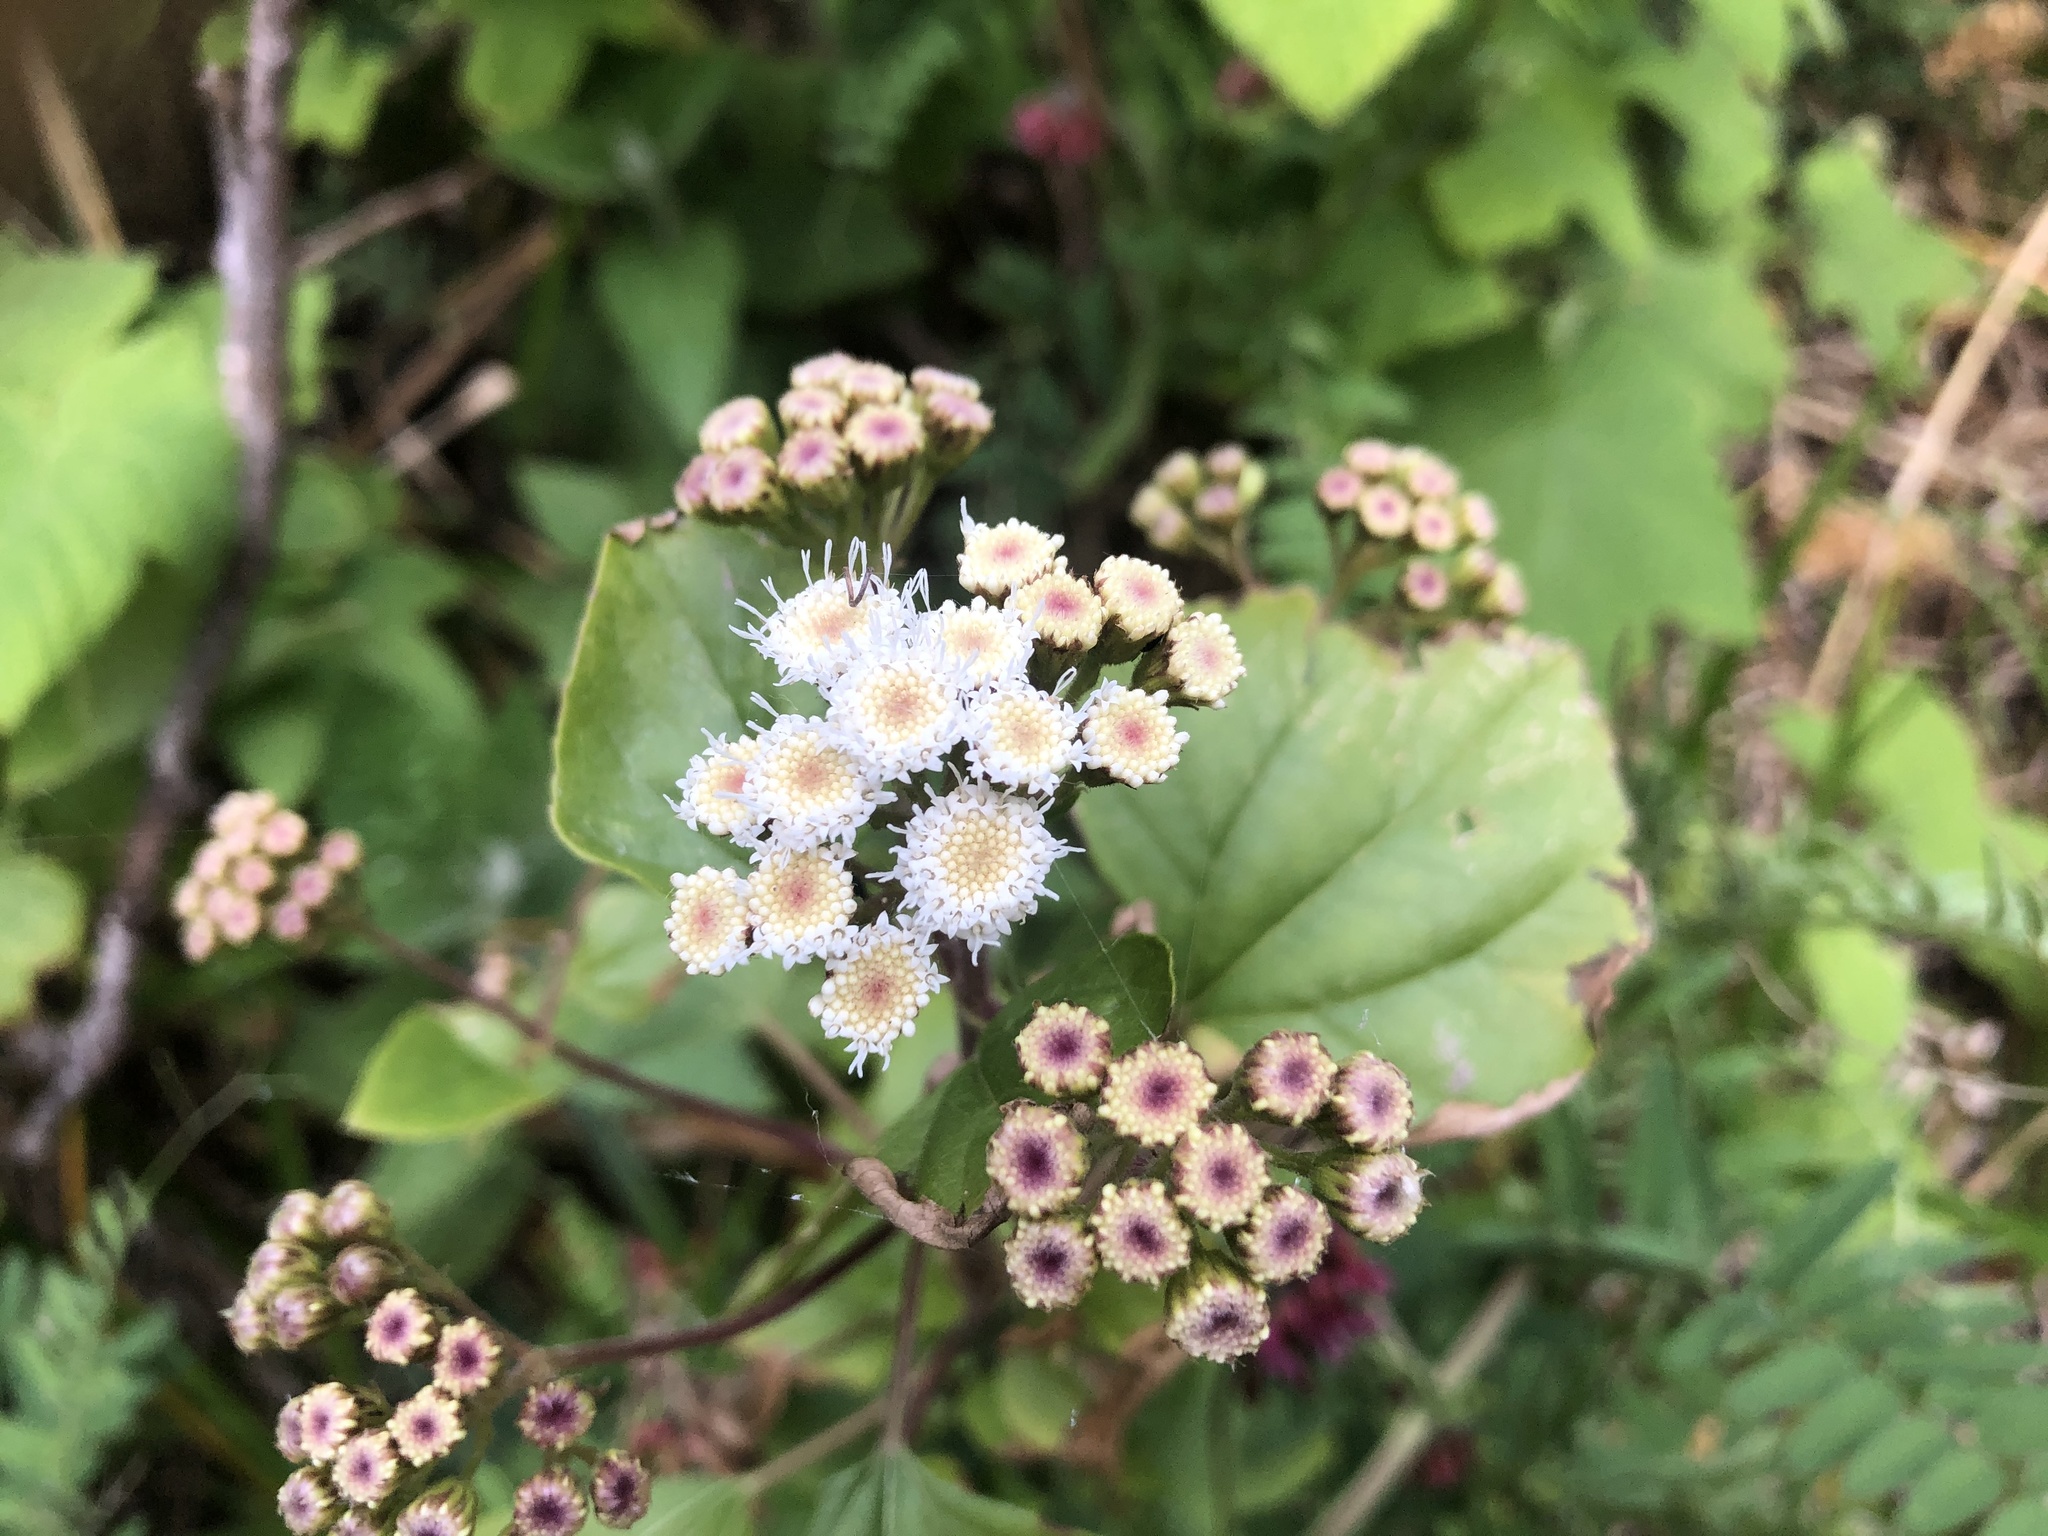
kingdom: Plantae
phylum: Tracheophyta
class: Magnoliopsida
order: Asterales
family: Asteraceae
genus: Ageratina
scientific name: Ageratina adenophora
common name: Sticky snakeroot
